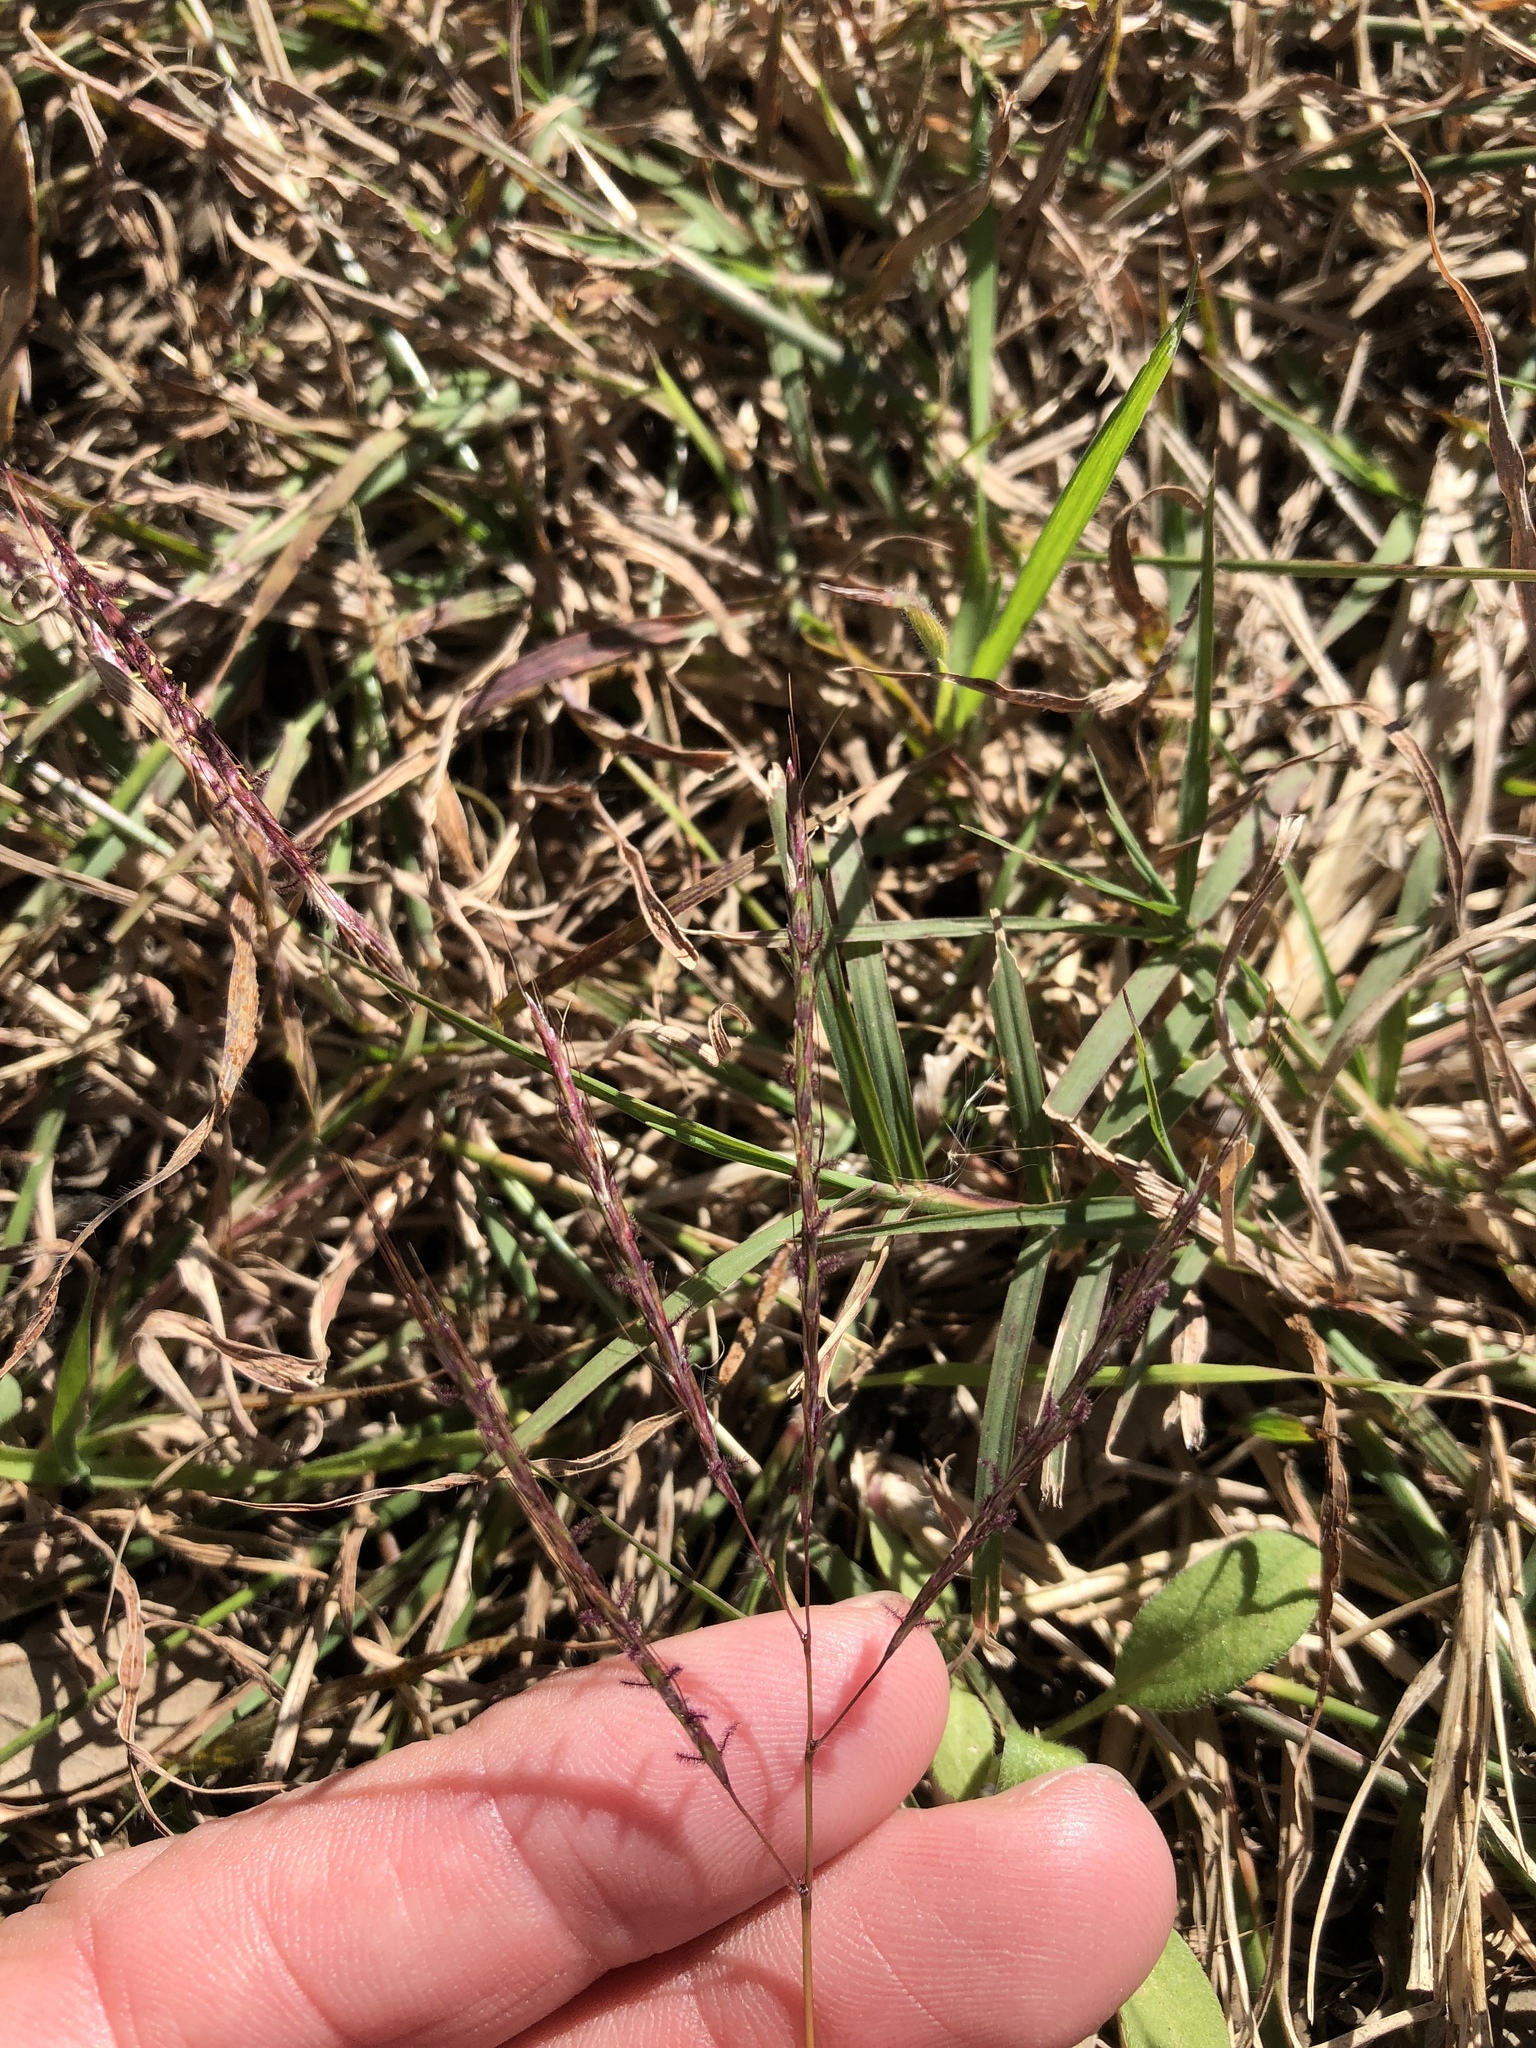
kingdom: Plantae
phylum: Tracheophyta
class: Liliopsida
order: Poales
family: Poaceae
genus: Bothriochloa
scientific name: Bothriochloa ischaemum
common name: Yellow bluestem
